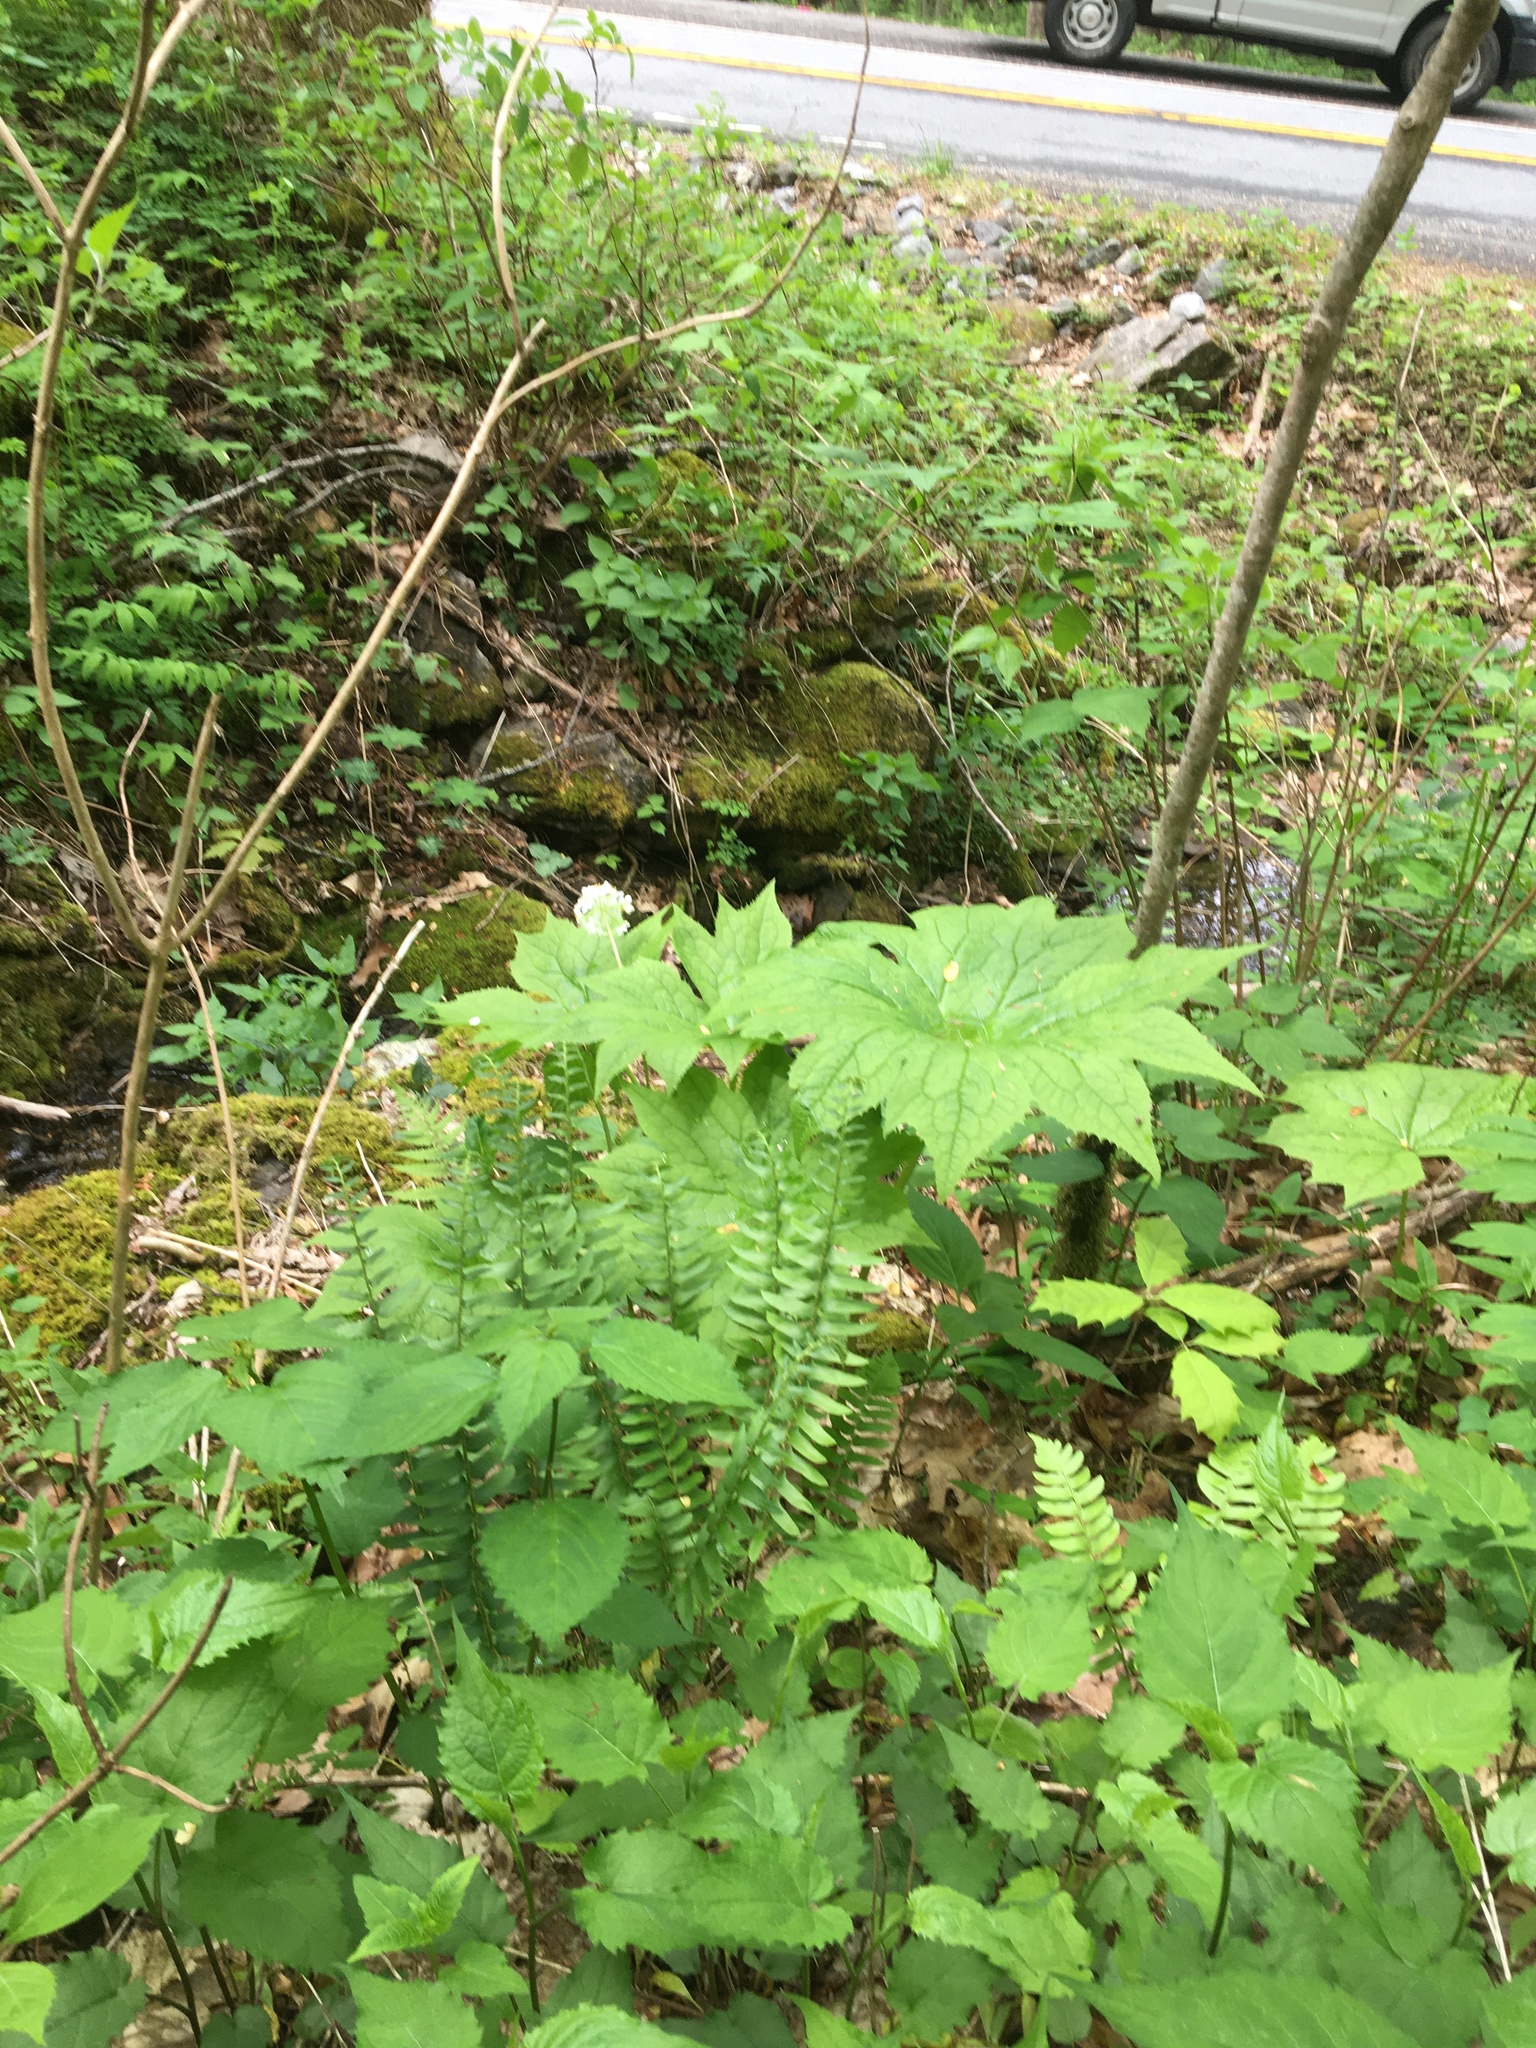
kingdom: Plantae
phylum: Tracheophyta
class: Magnoliopsida
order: Ranunculales
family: Berberidaceae
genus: Diphylleia
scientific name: Diphylleia cymosa
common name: Umbrella-leaf
